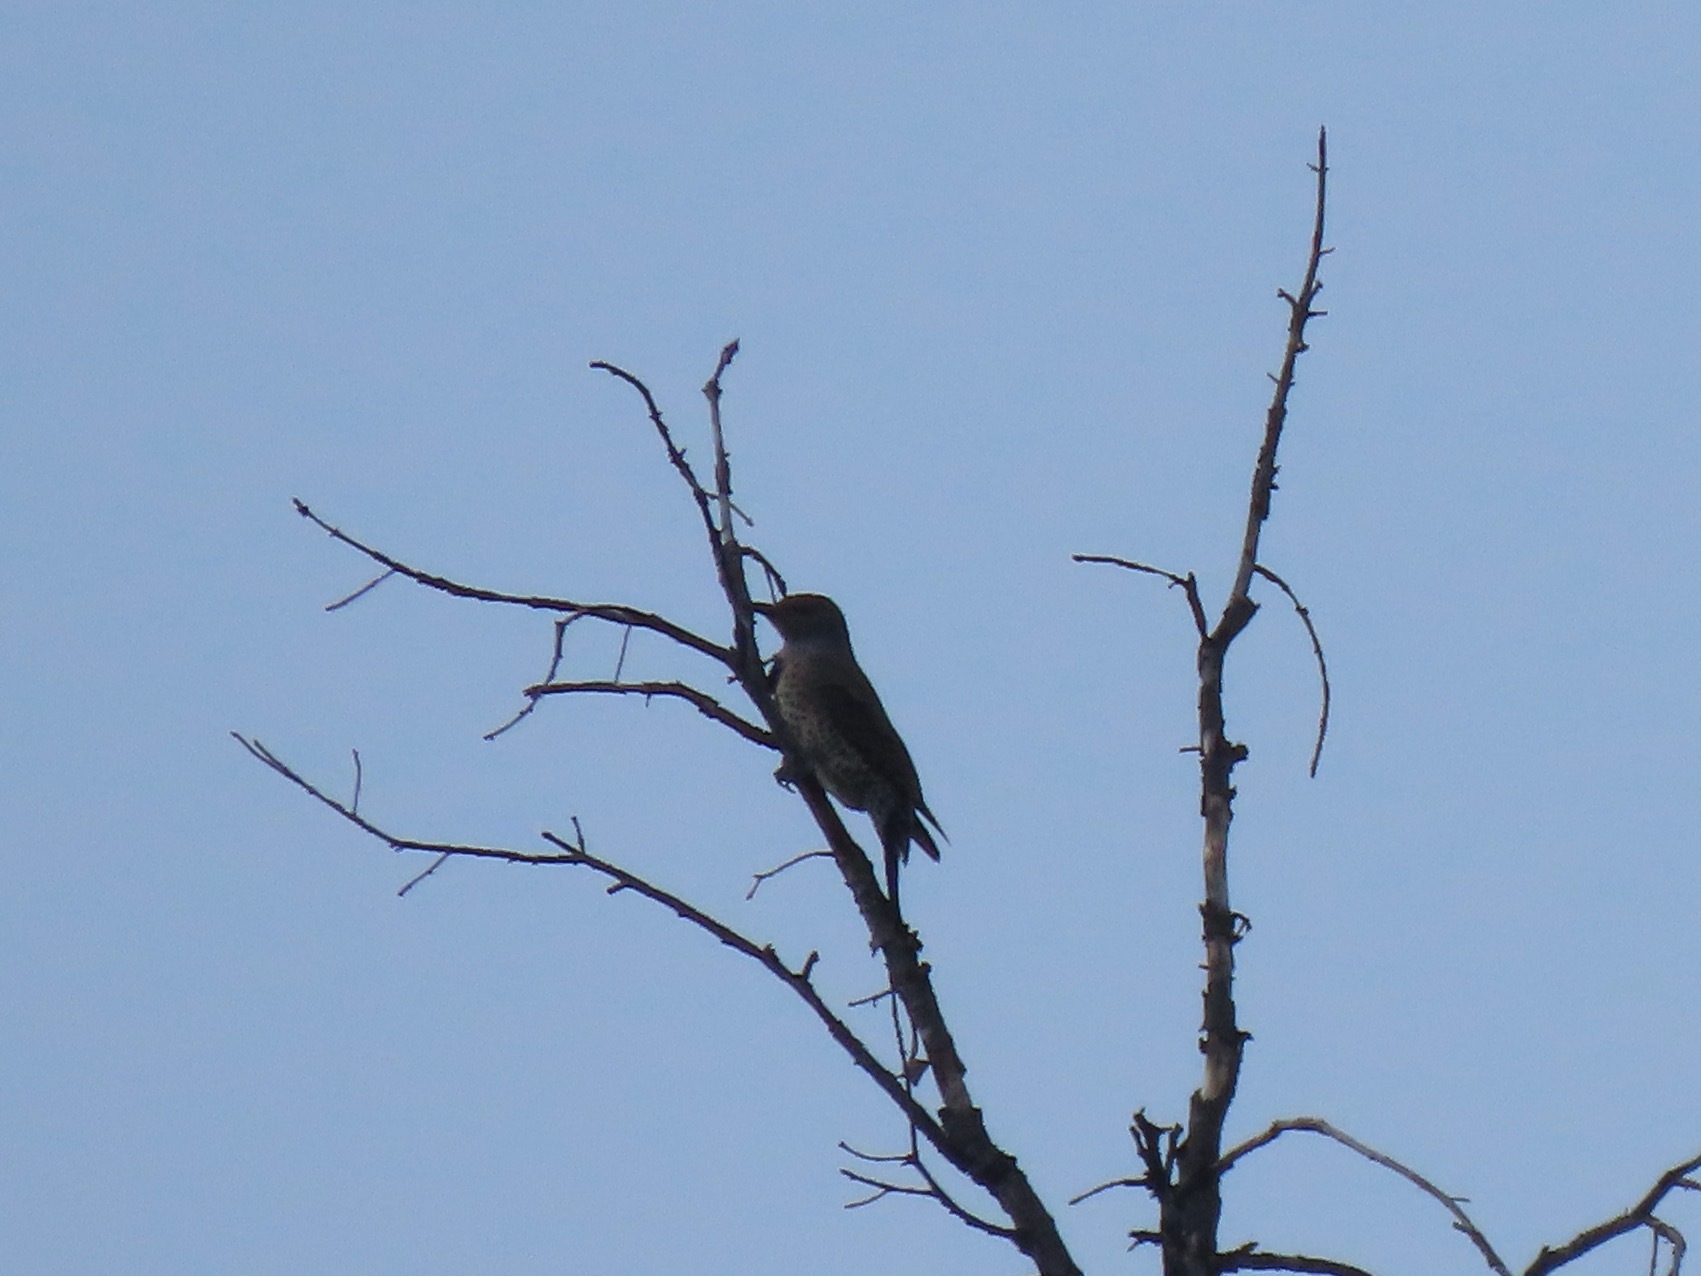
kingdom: Animalia
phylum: Chordata
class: Aves
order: Piciformes
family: Picidae
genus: Colaptes
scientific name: Colaptes auratus
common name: Northern flicker
